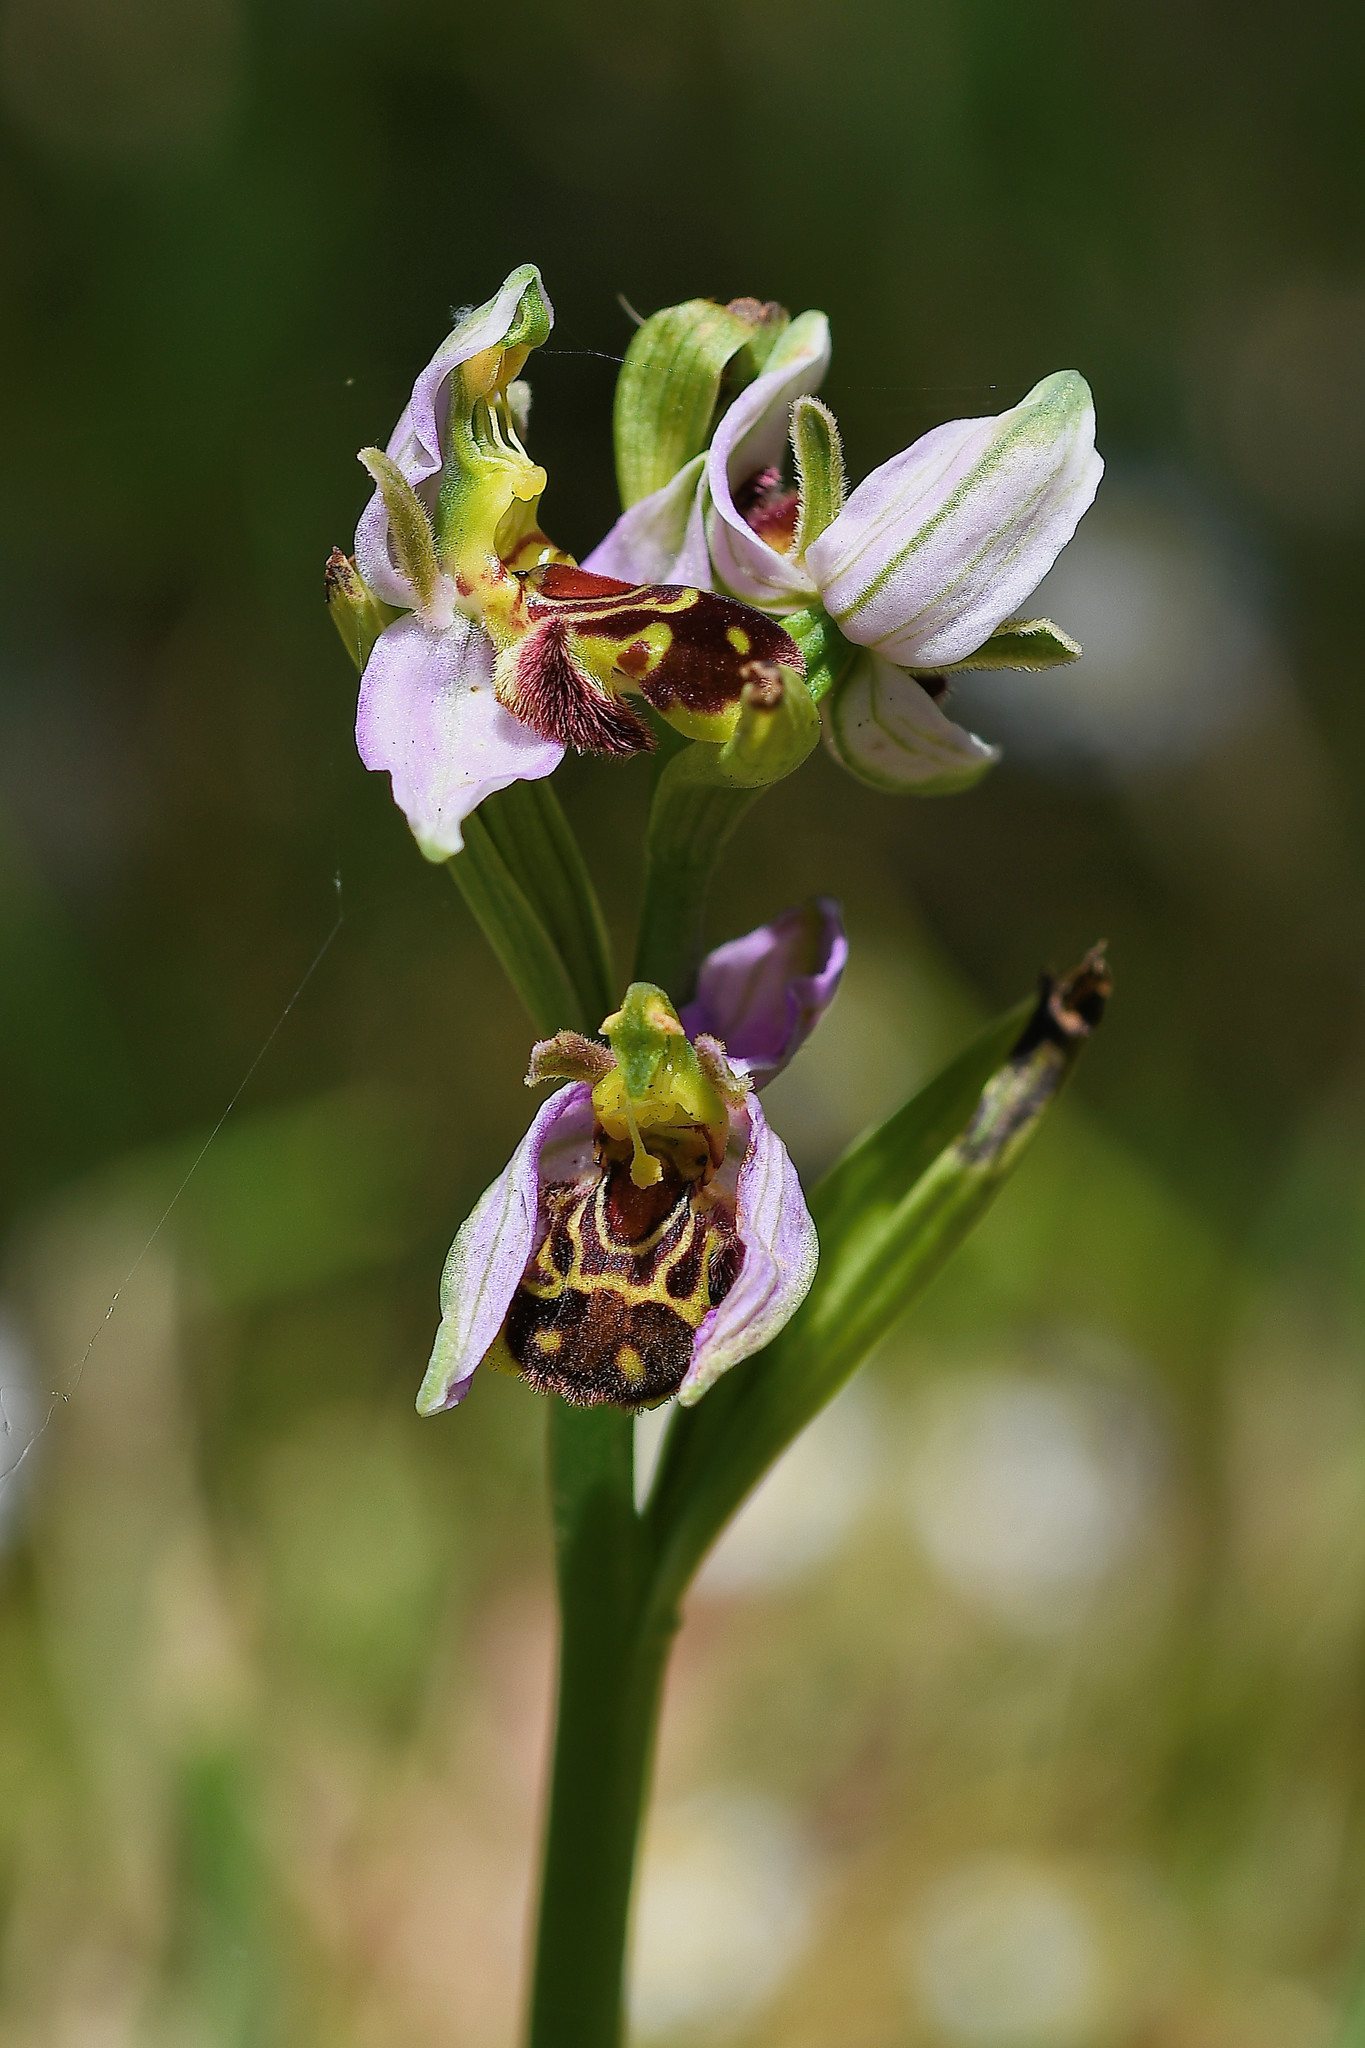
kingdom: Plantae
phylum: Tracheophyta
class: Liliopsida
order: Asparagales
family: Orchidaceae
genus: Ophrys
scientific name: Ophrys apifera
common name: Bee orchid
